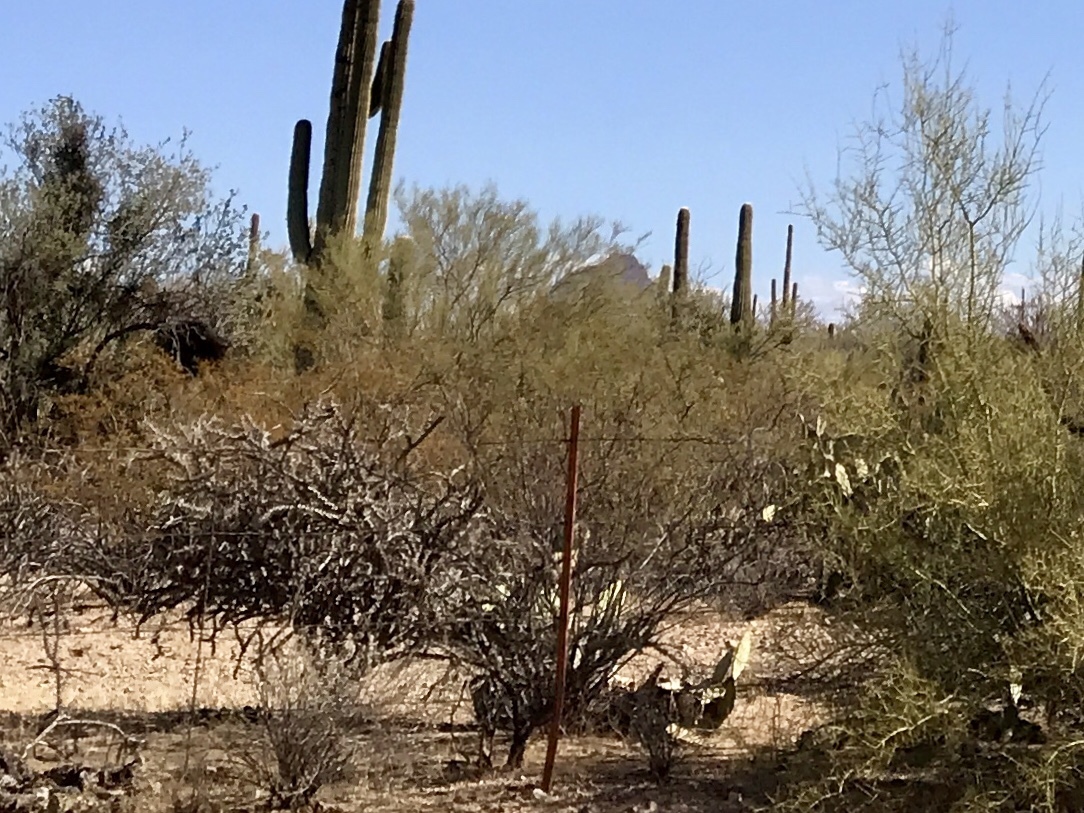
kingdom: Plantae
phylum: Tracheophyta
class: Magnoliopsida
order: Zygophyllales
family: Zygophyllaceae
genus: Larrea
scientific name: Larrea tridentata
